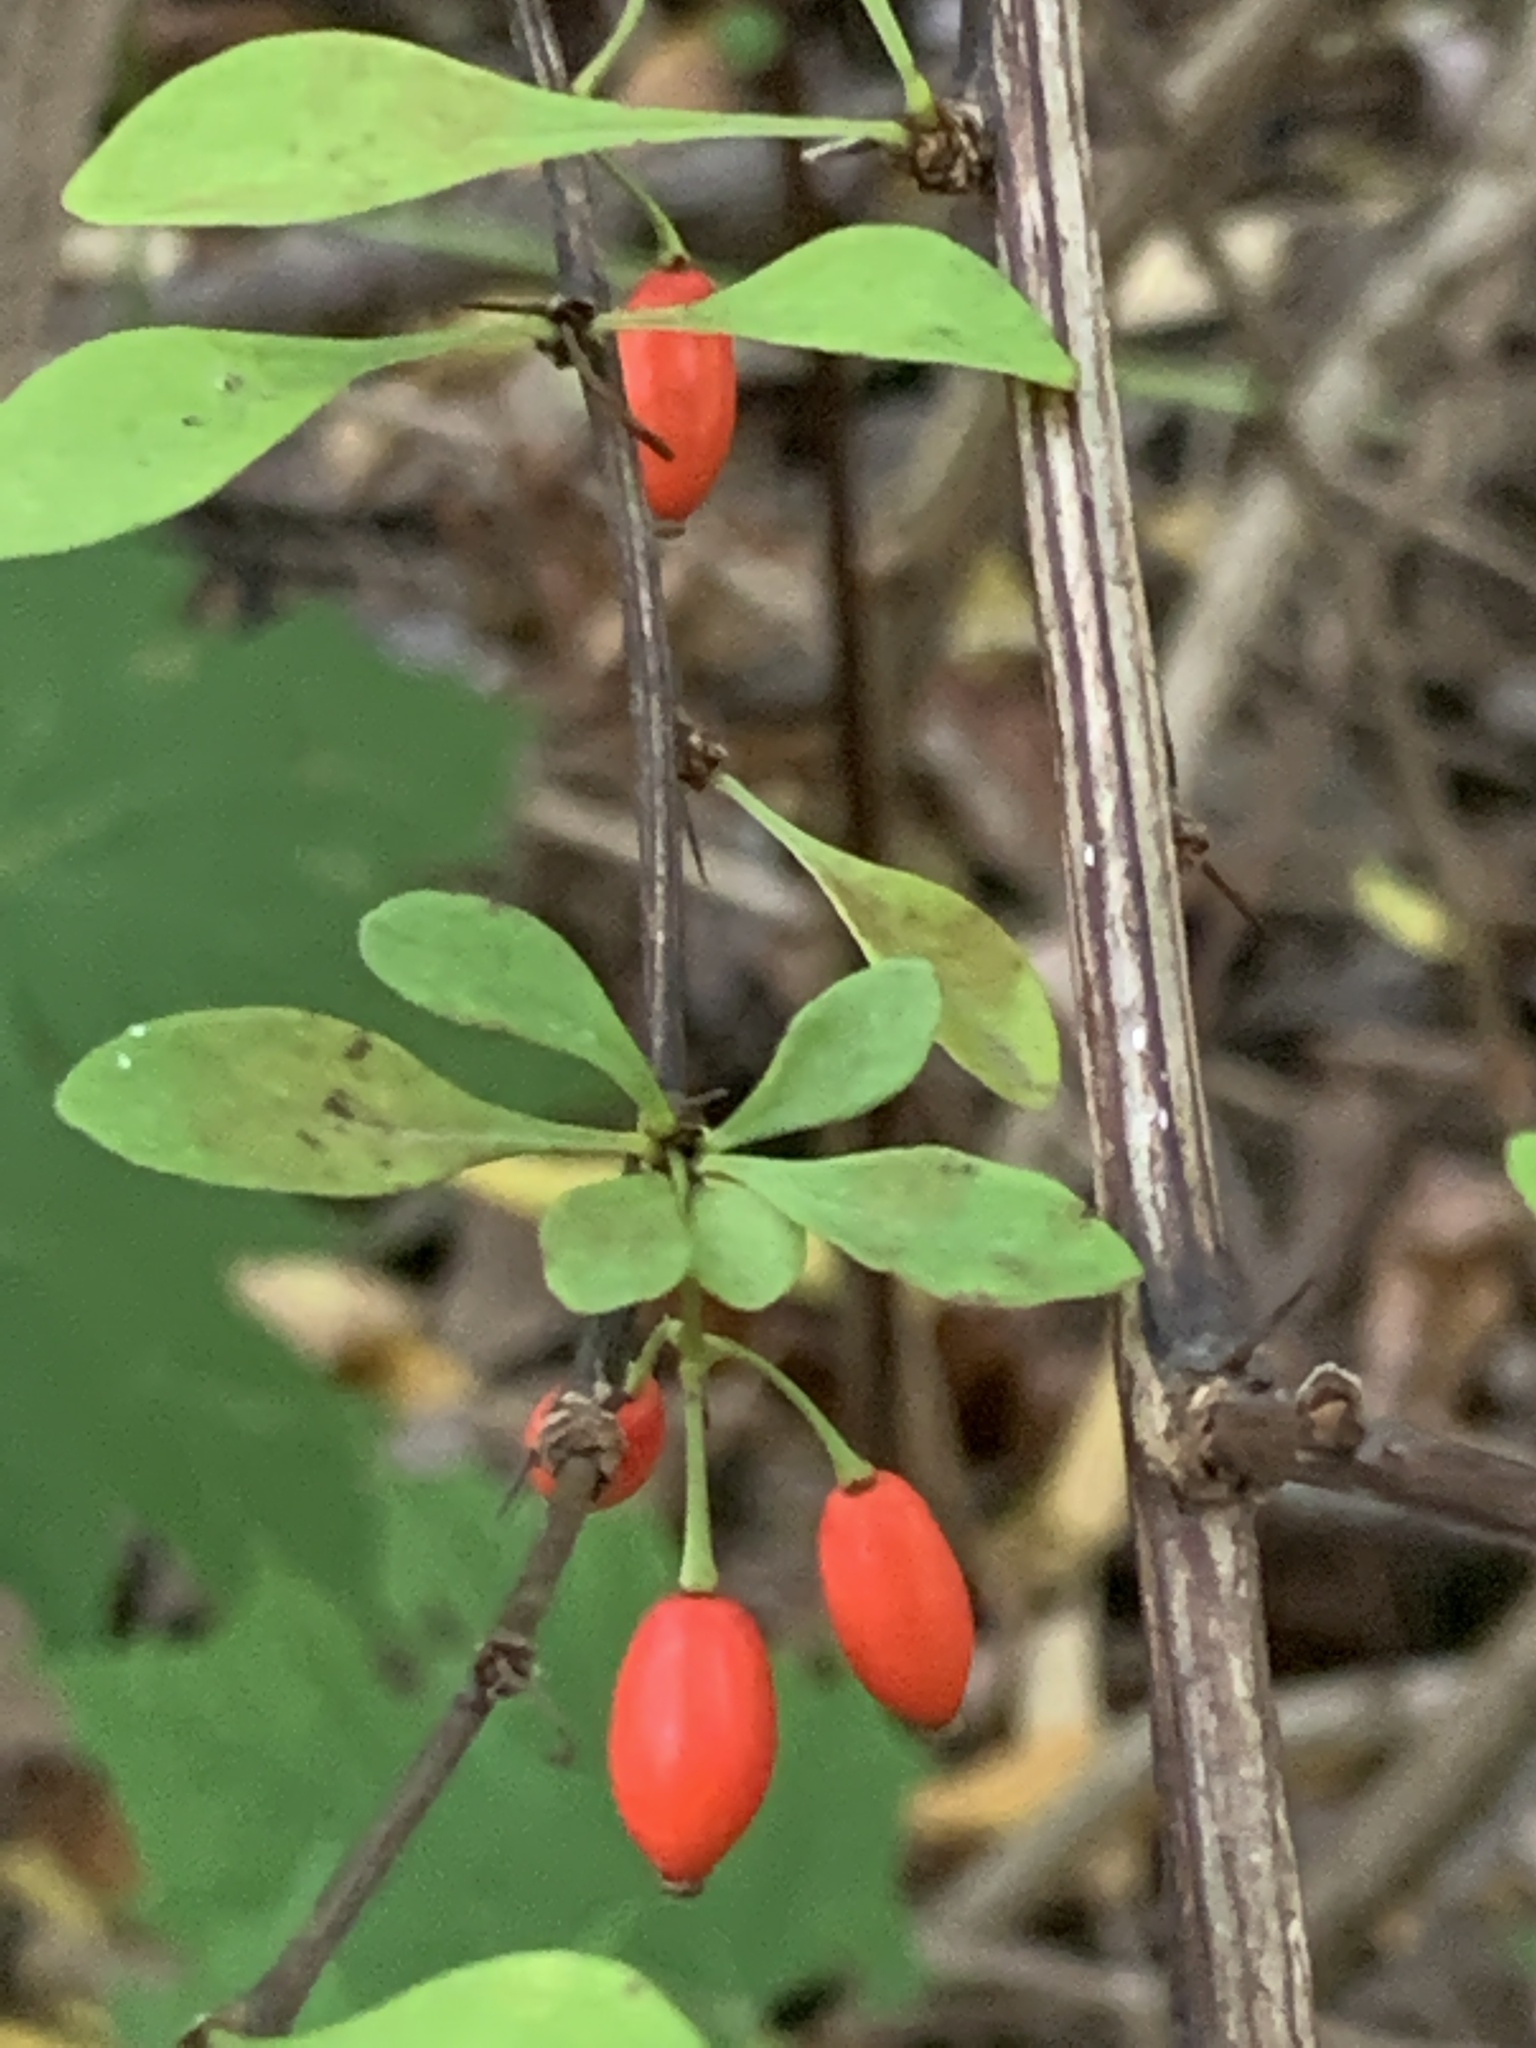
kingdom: Plantae
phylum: Tracheophyta
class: Magnoliopsida
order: Ranunculales
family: Berberidaceae
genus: Berberis
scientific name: Berberis thunbergii
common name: Japanese barberry
